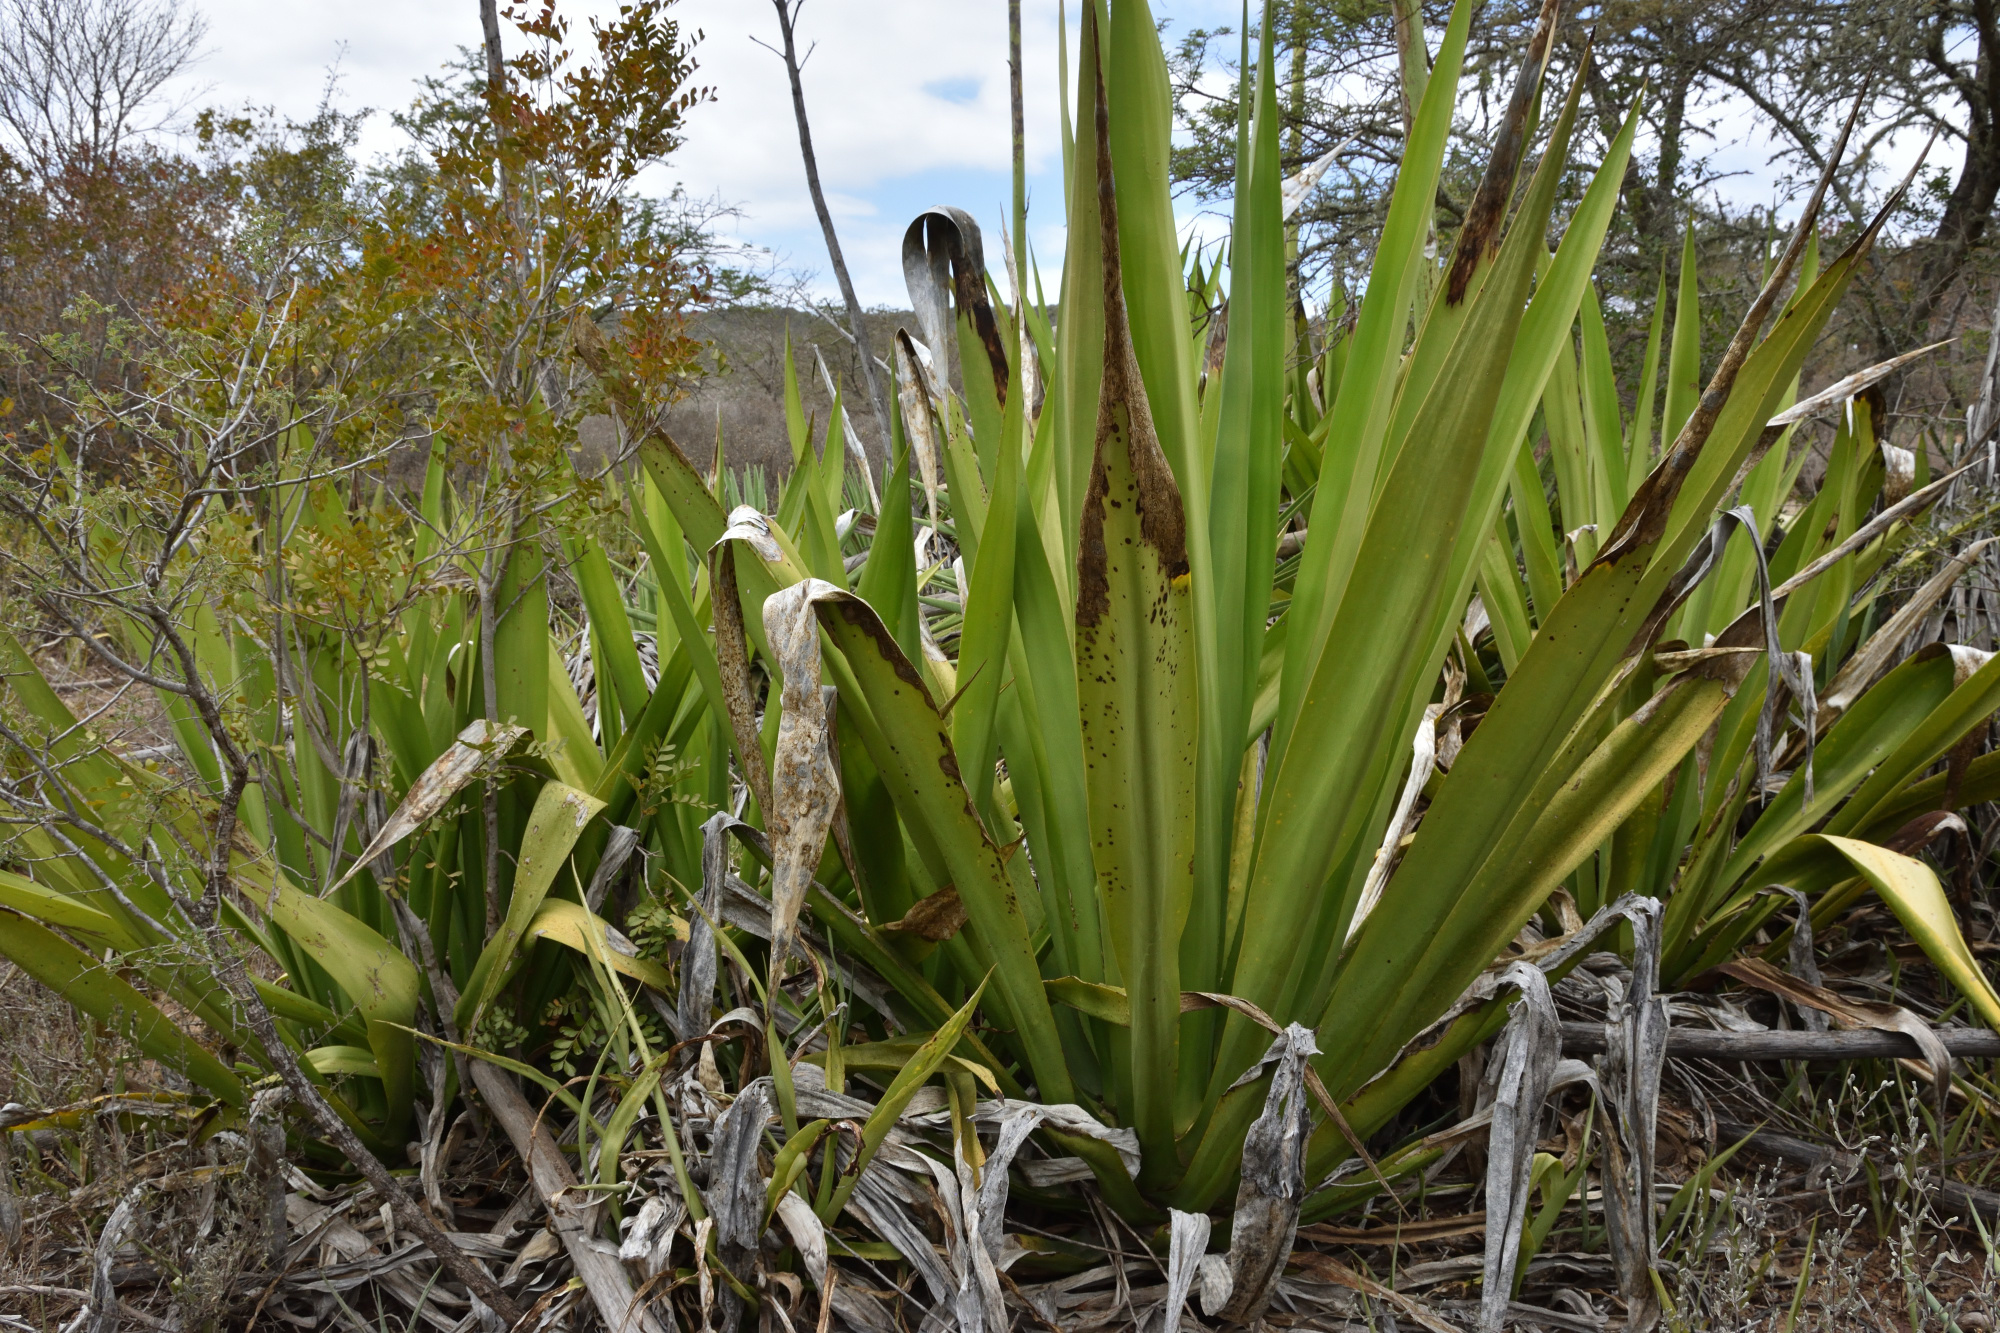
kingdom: Plantae
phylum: Tracheophyta
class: Liliopsida
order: Asparagales
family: Asparagaceae
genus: Furcraea
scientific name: Furcraea foetida
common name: Mauritius hemp
